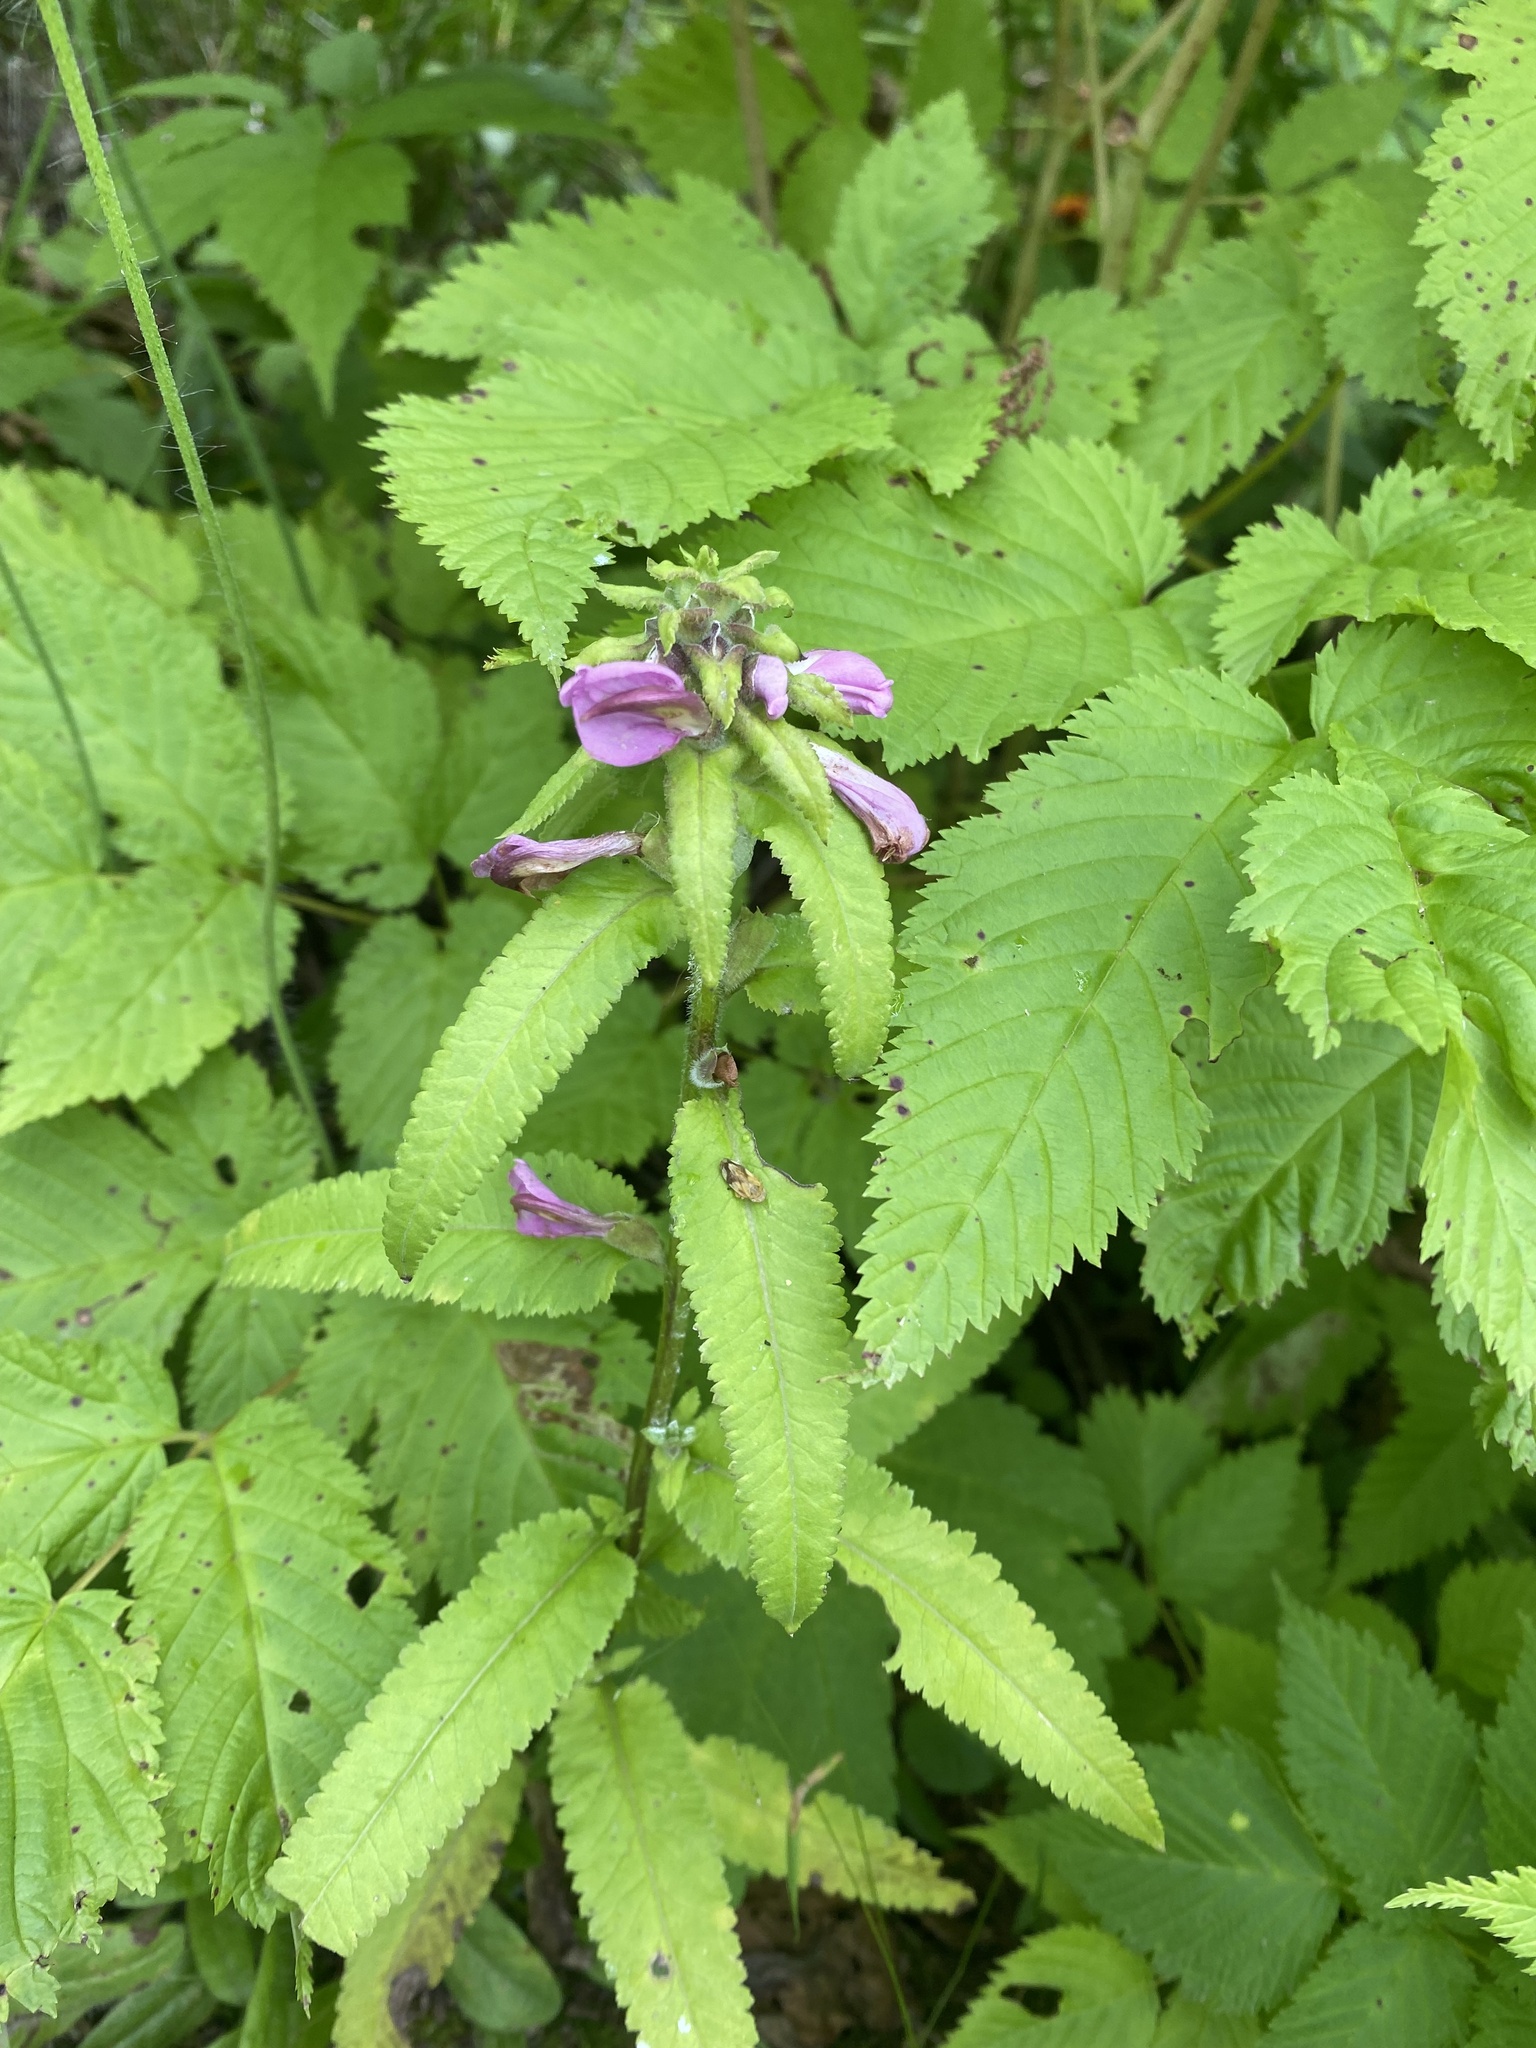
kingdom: Plantae
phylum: Tracheophyta
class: Magnoliopsida
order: Lamiales
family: Orobanchaceae
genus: Pedicularis
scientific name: Pedicularis resupinata
